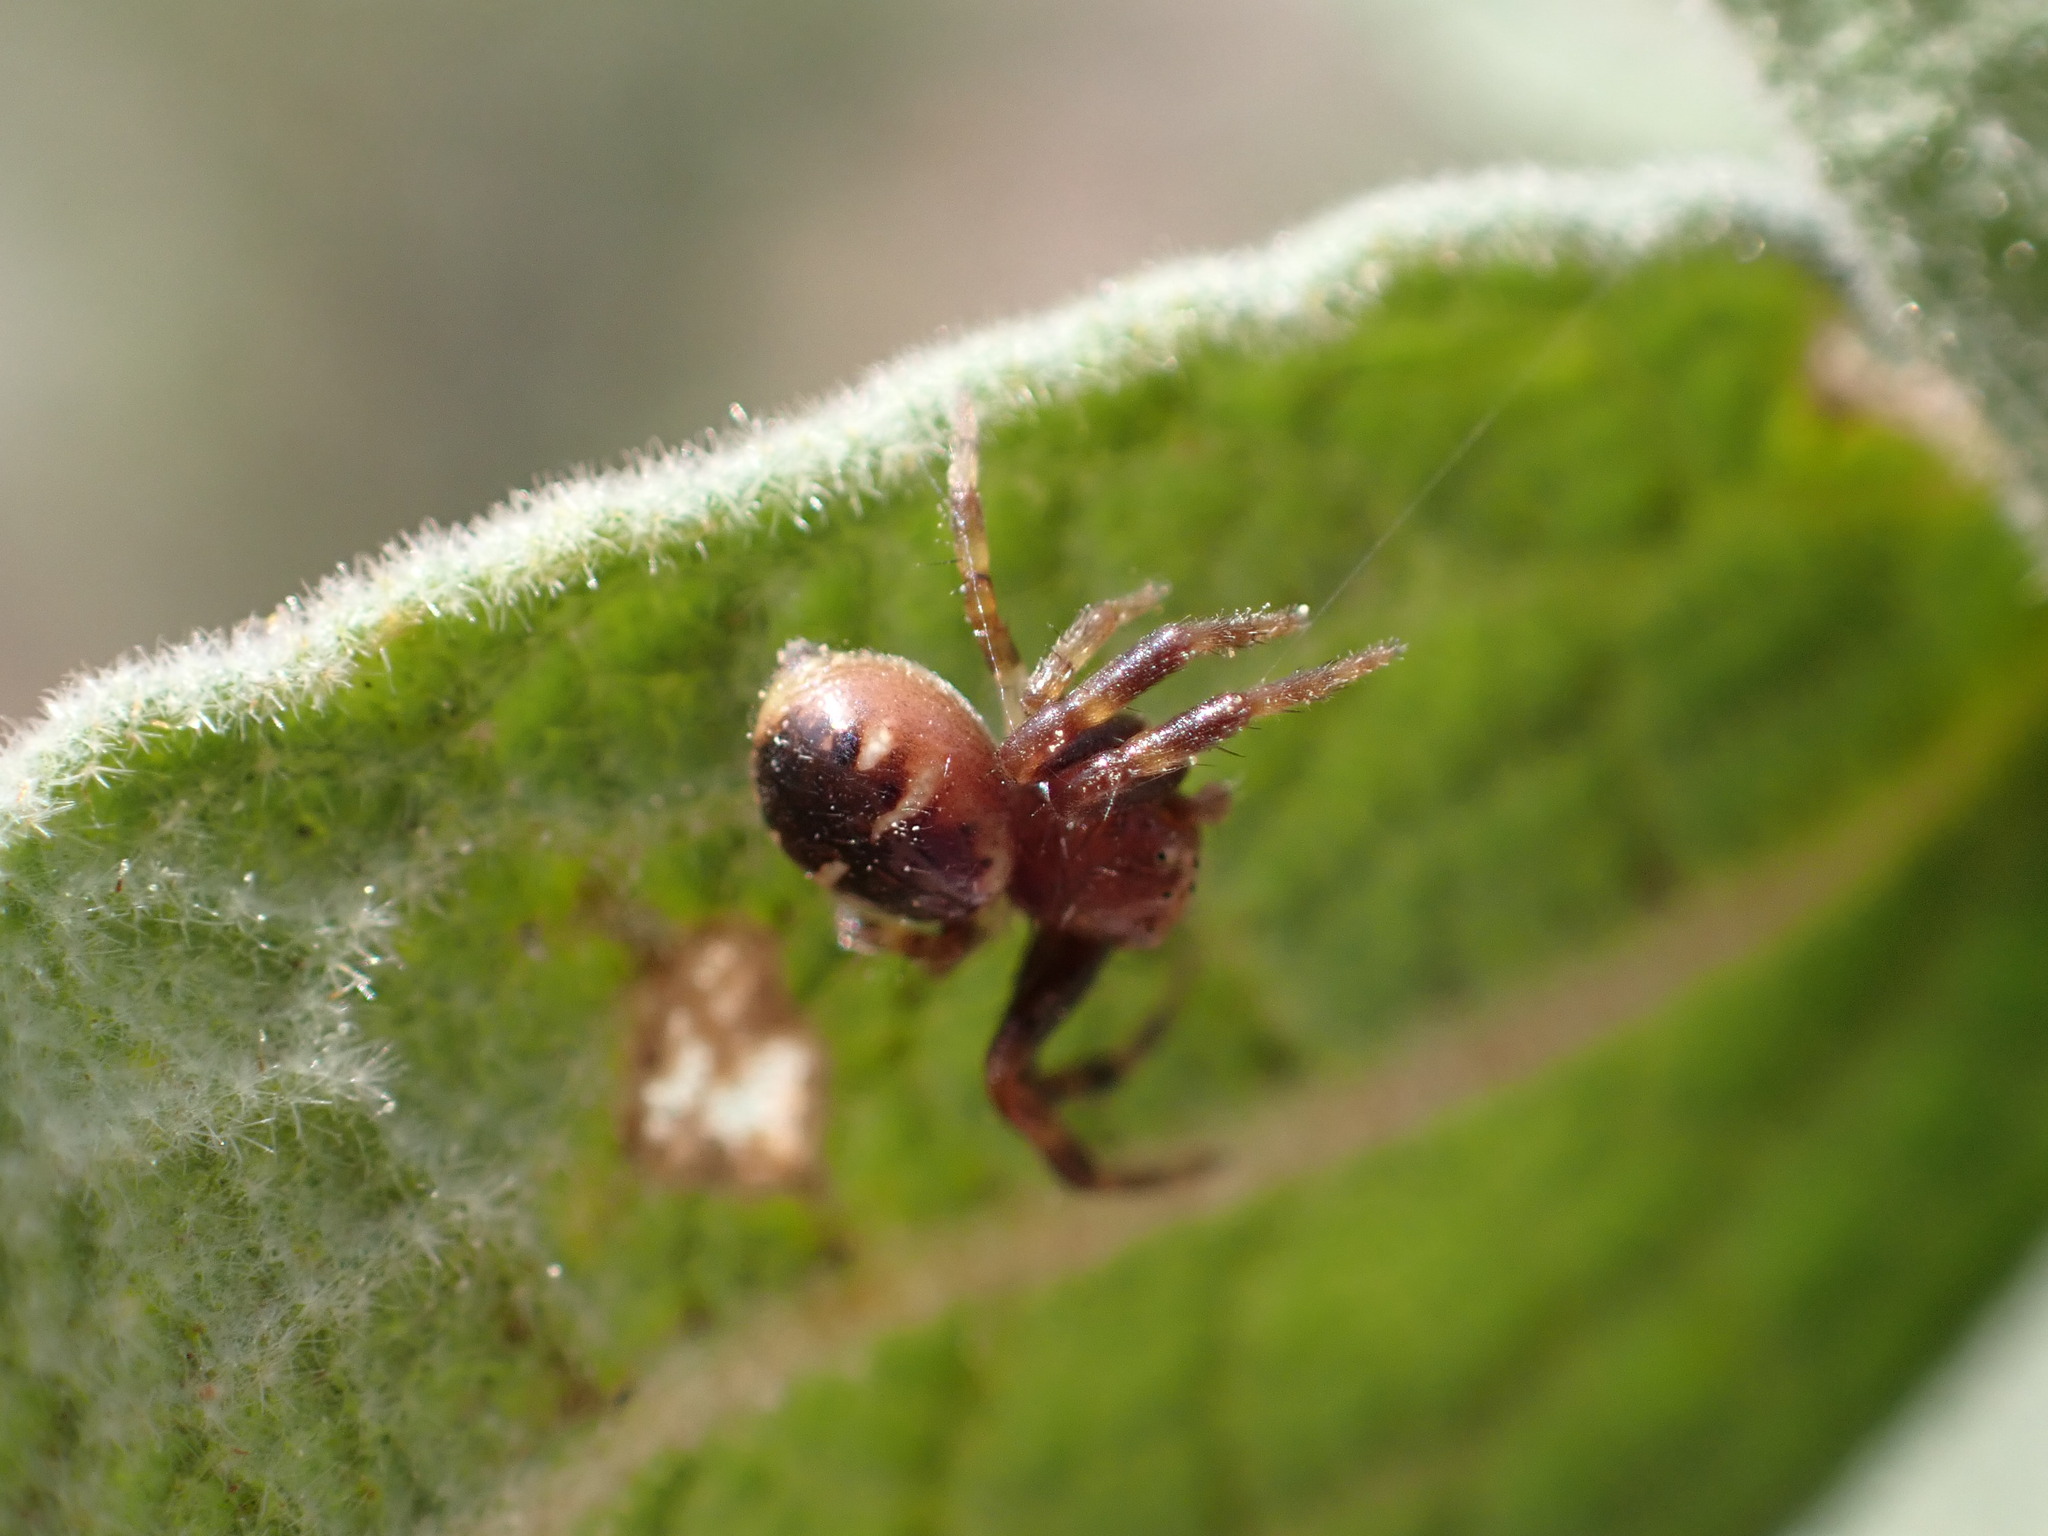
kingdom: Animalia
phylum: Arthropoda
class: Arachnida
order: Araneae
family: Thomisidae
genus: Synema
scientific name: Synema globosum
